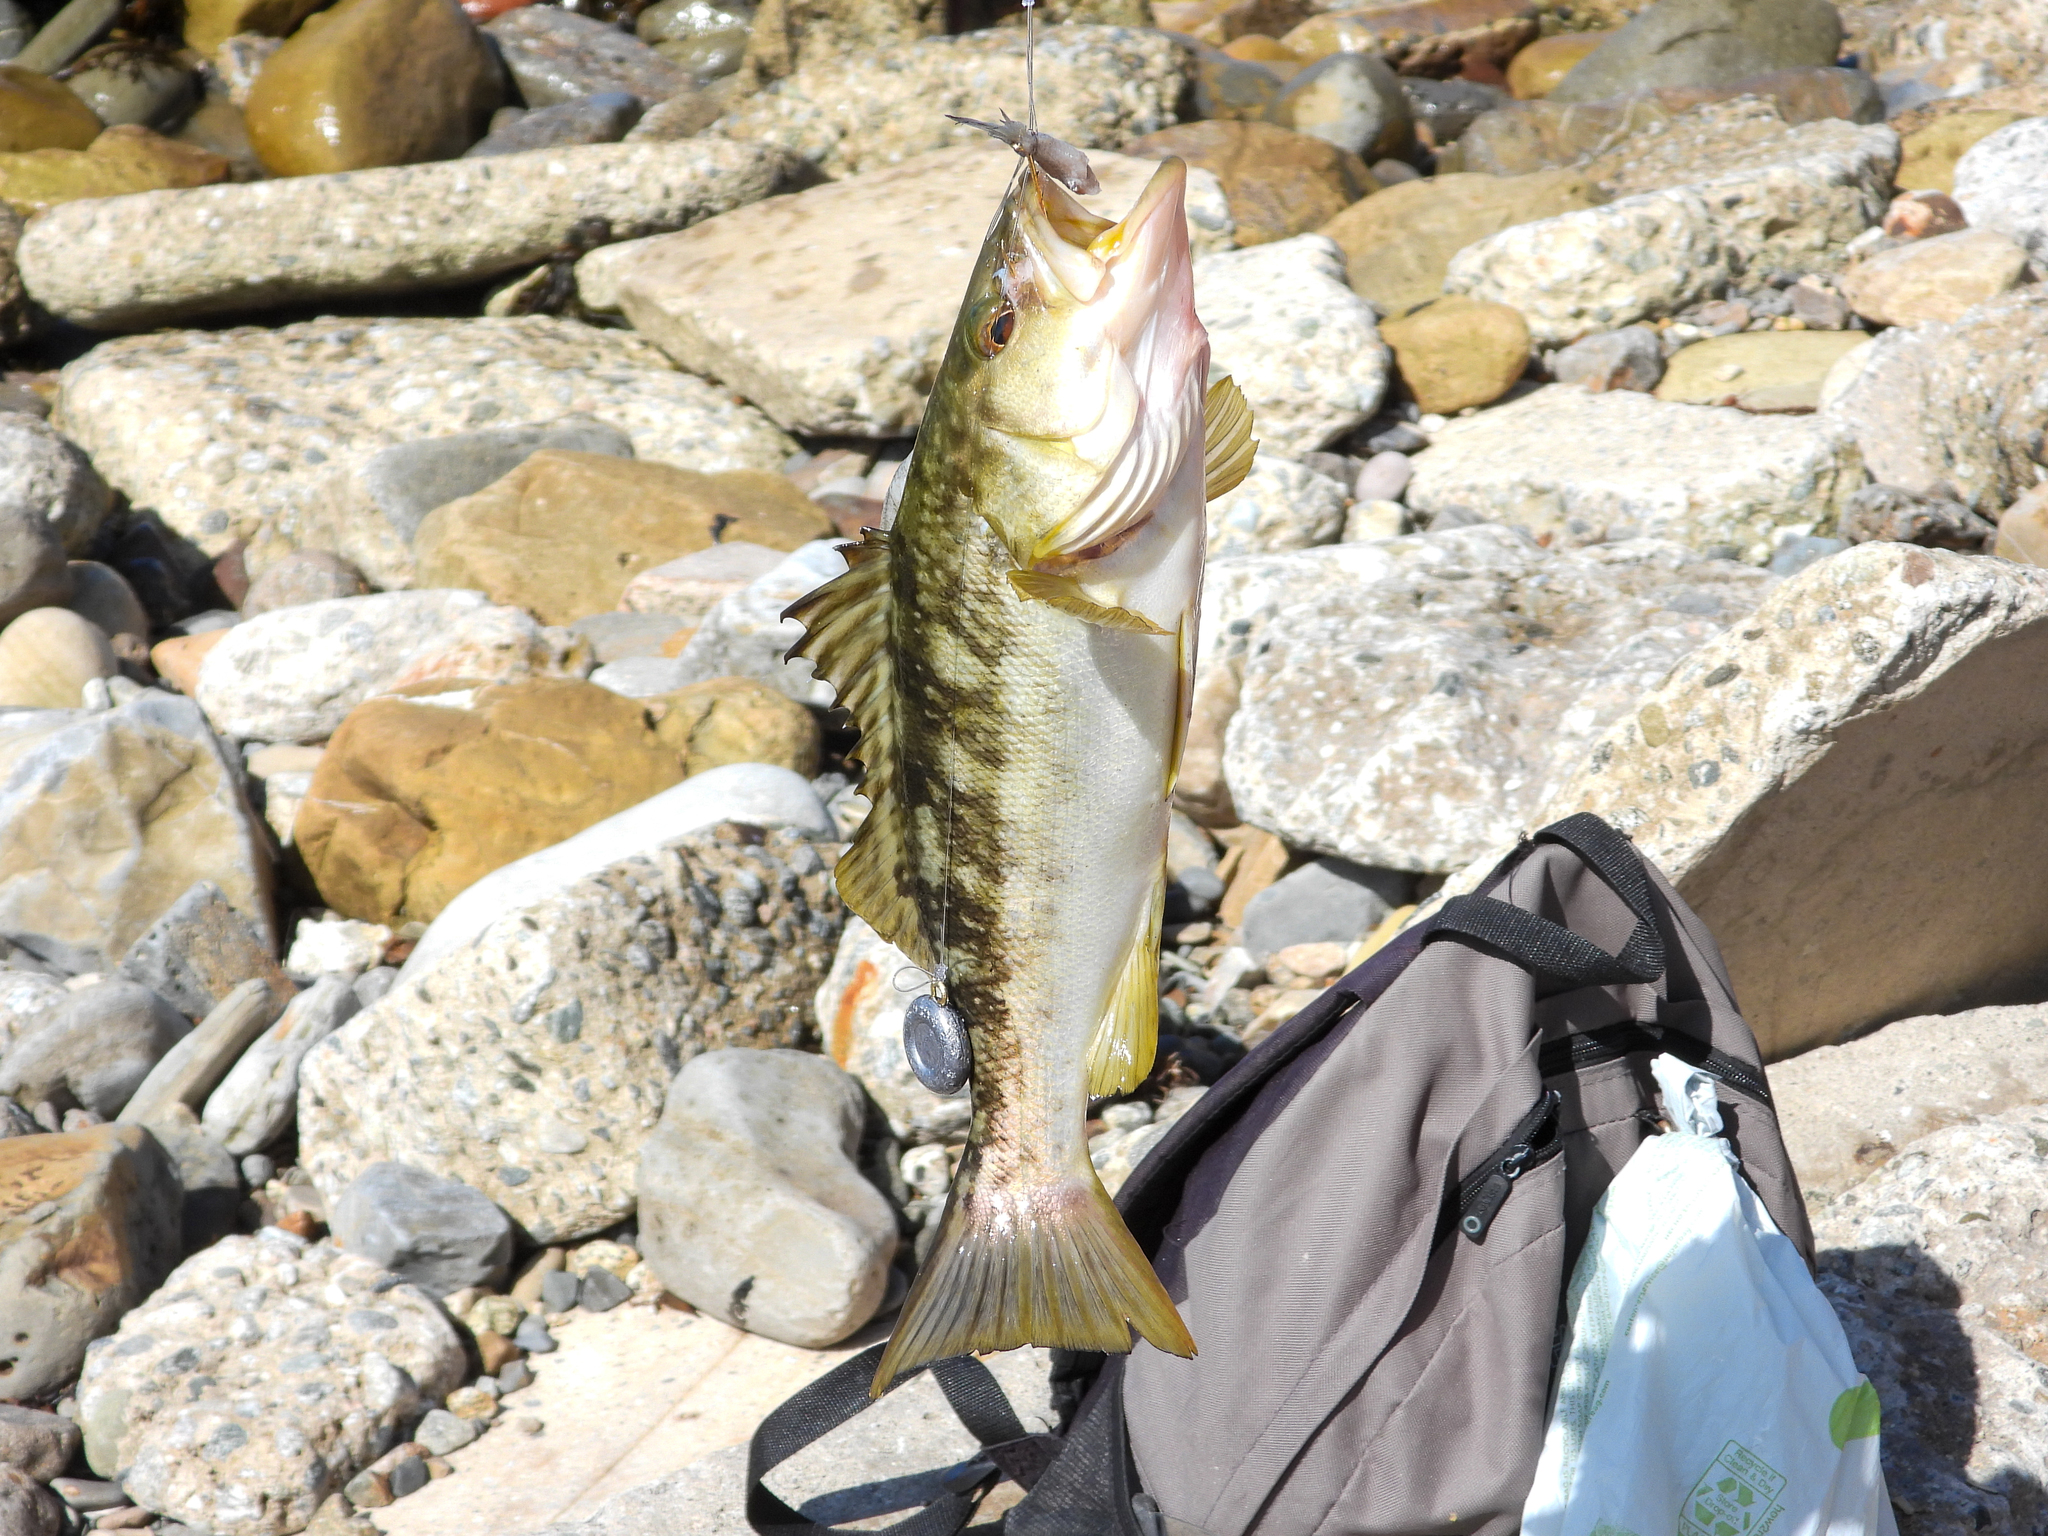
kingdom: Animalia
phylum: Chordata
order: Perciformes
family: Serranidae
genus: Paralabrax
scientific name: Paralabrax clathratus
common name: Kelp bass
